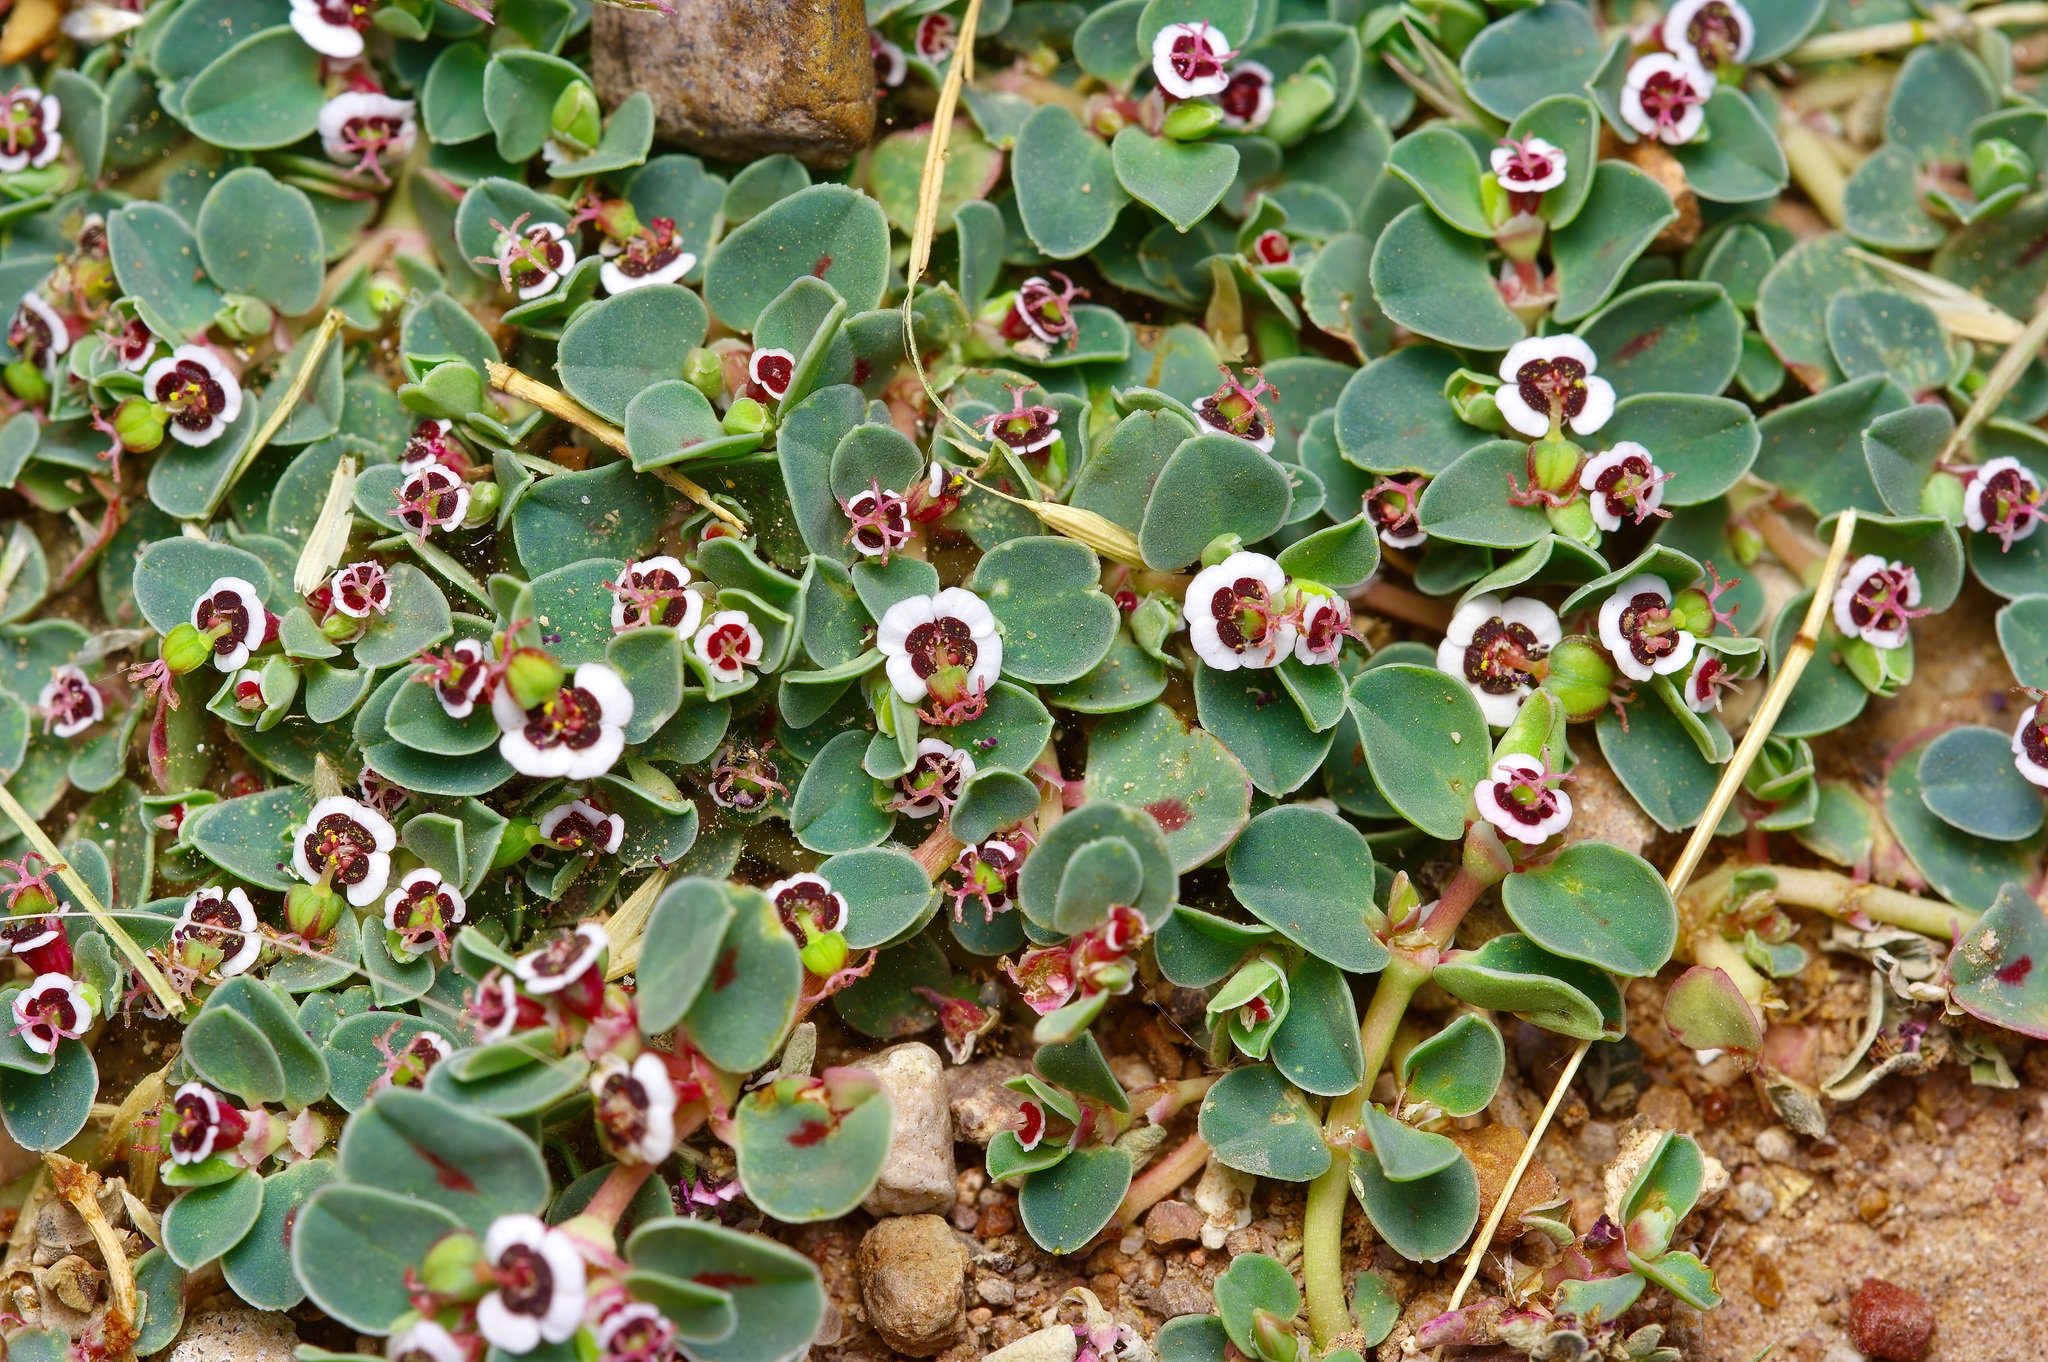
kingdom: Plantae
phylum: Tracheophyta
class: Magnoliopsida
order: Malpighiales
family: Euphorbiaceae
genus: Euphorbia
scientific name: Euphorbia albomarginata
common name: Whitemargin sandmat
